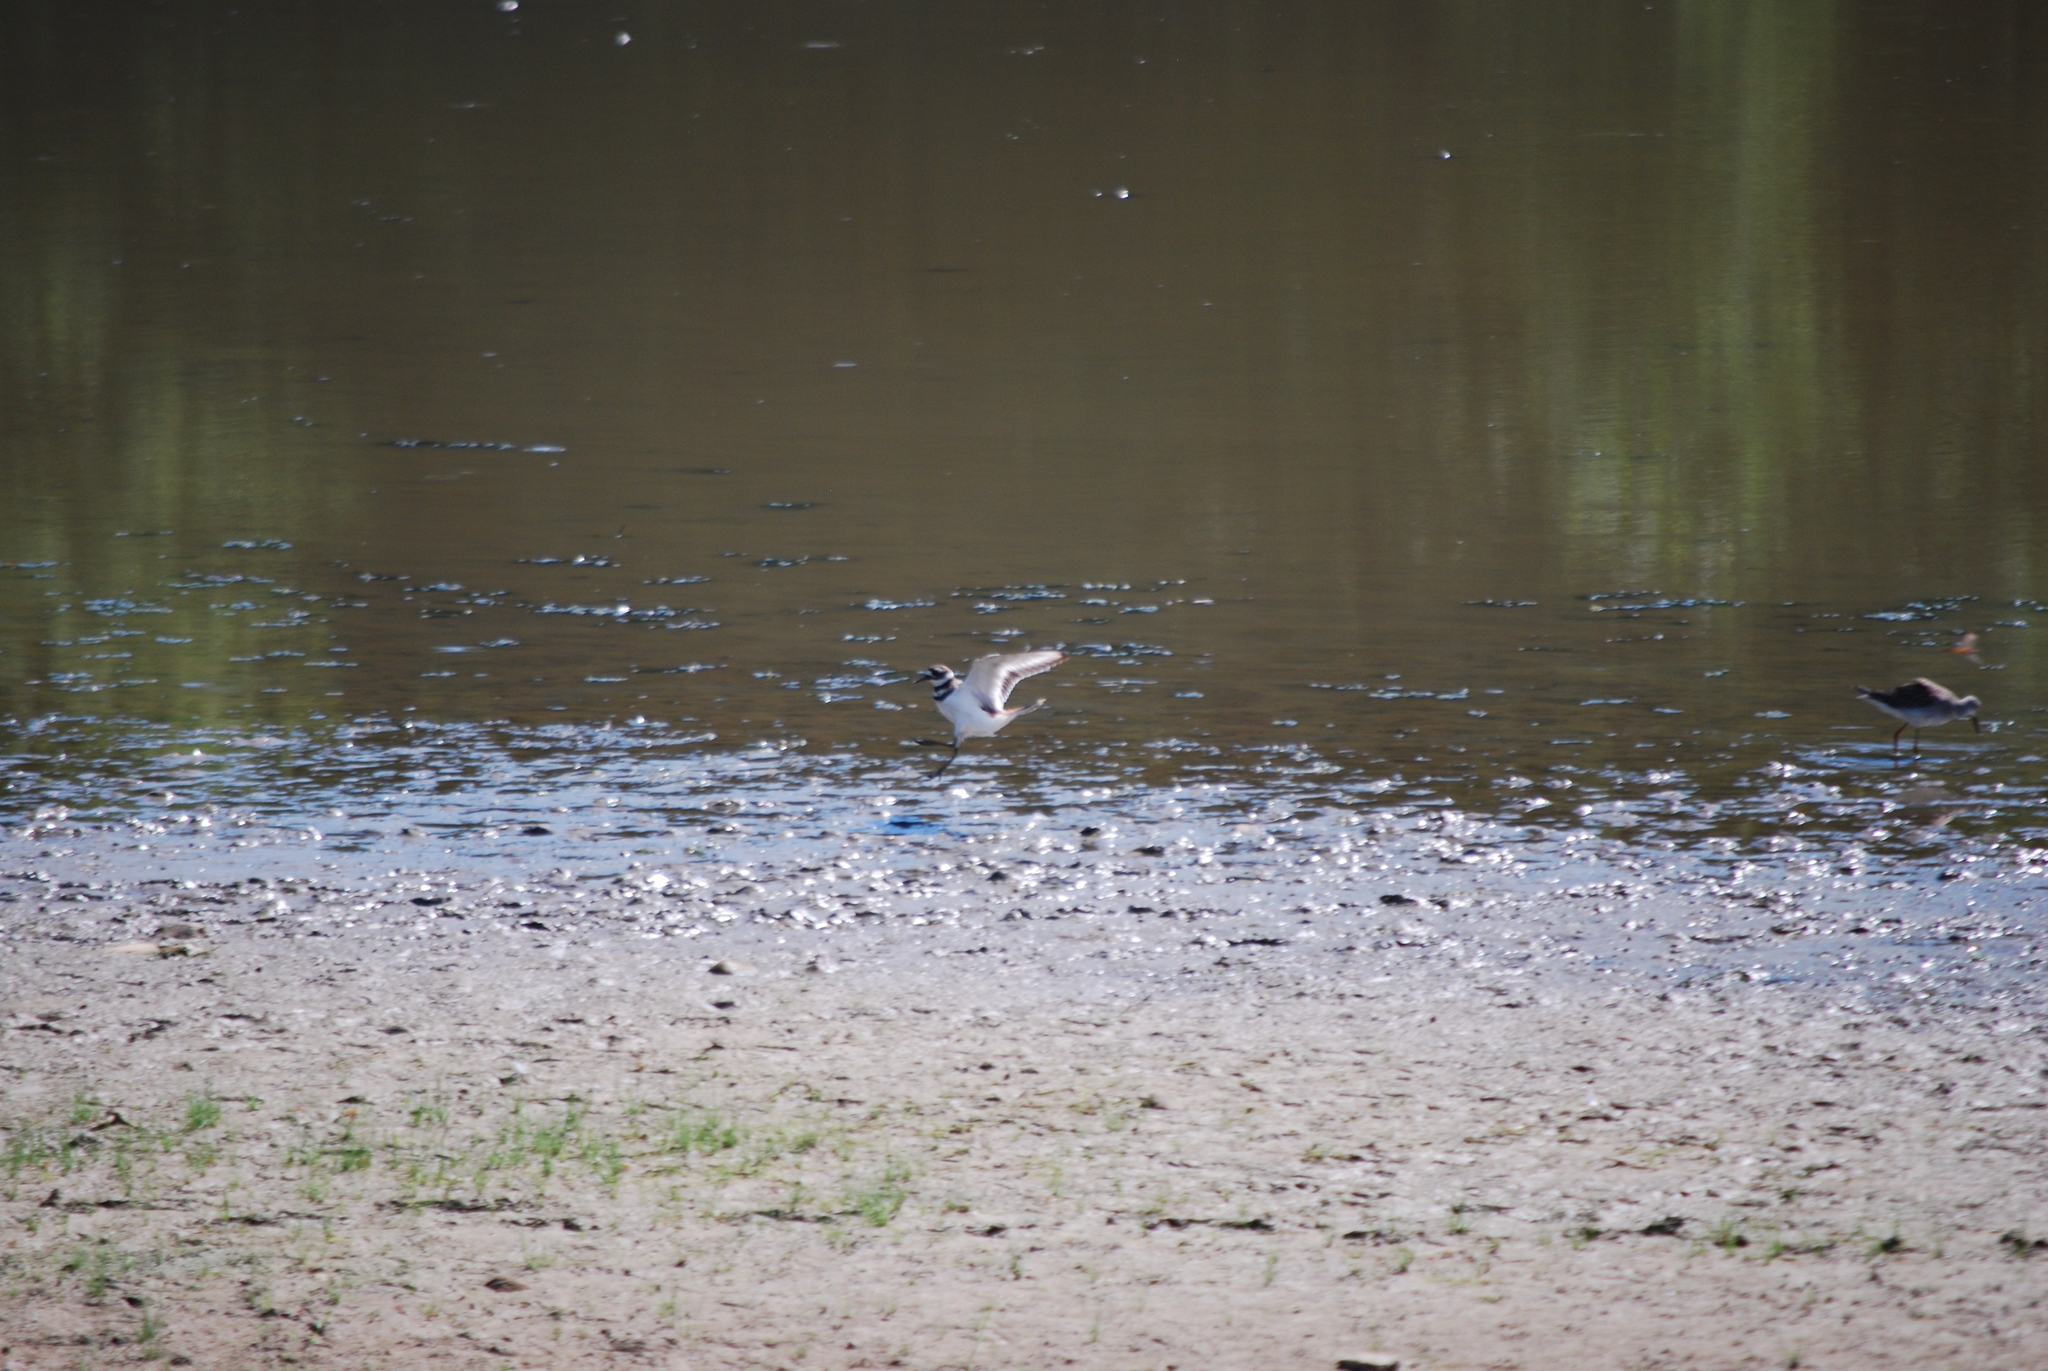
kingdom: Animalia
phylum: Chordata
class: Aves
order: Charadriiformes
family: Charadriidae
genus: Charadrius
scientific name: Charadrius vociferus
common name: Killdeer
